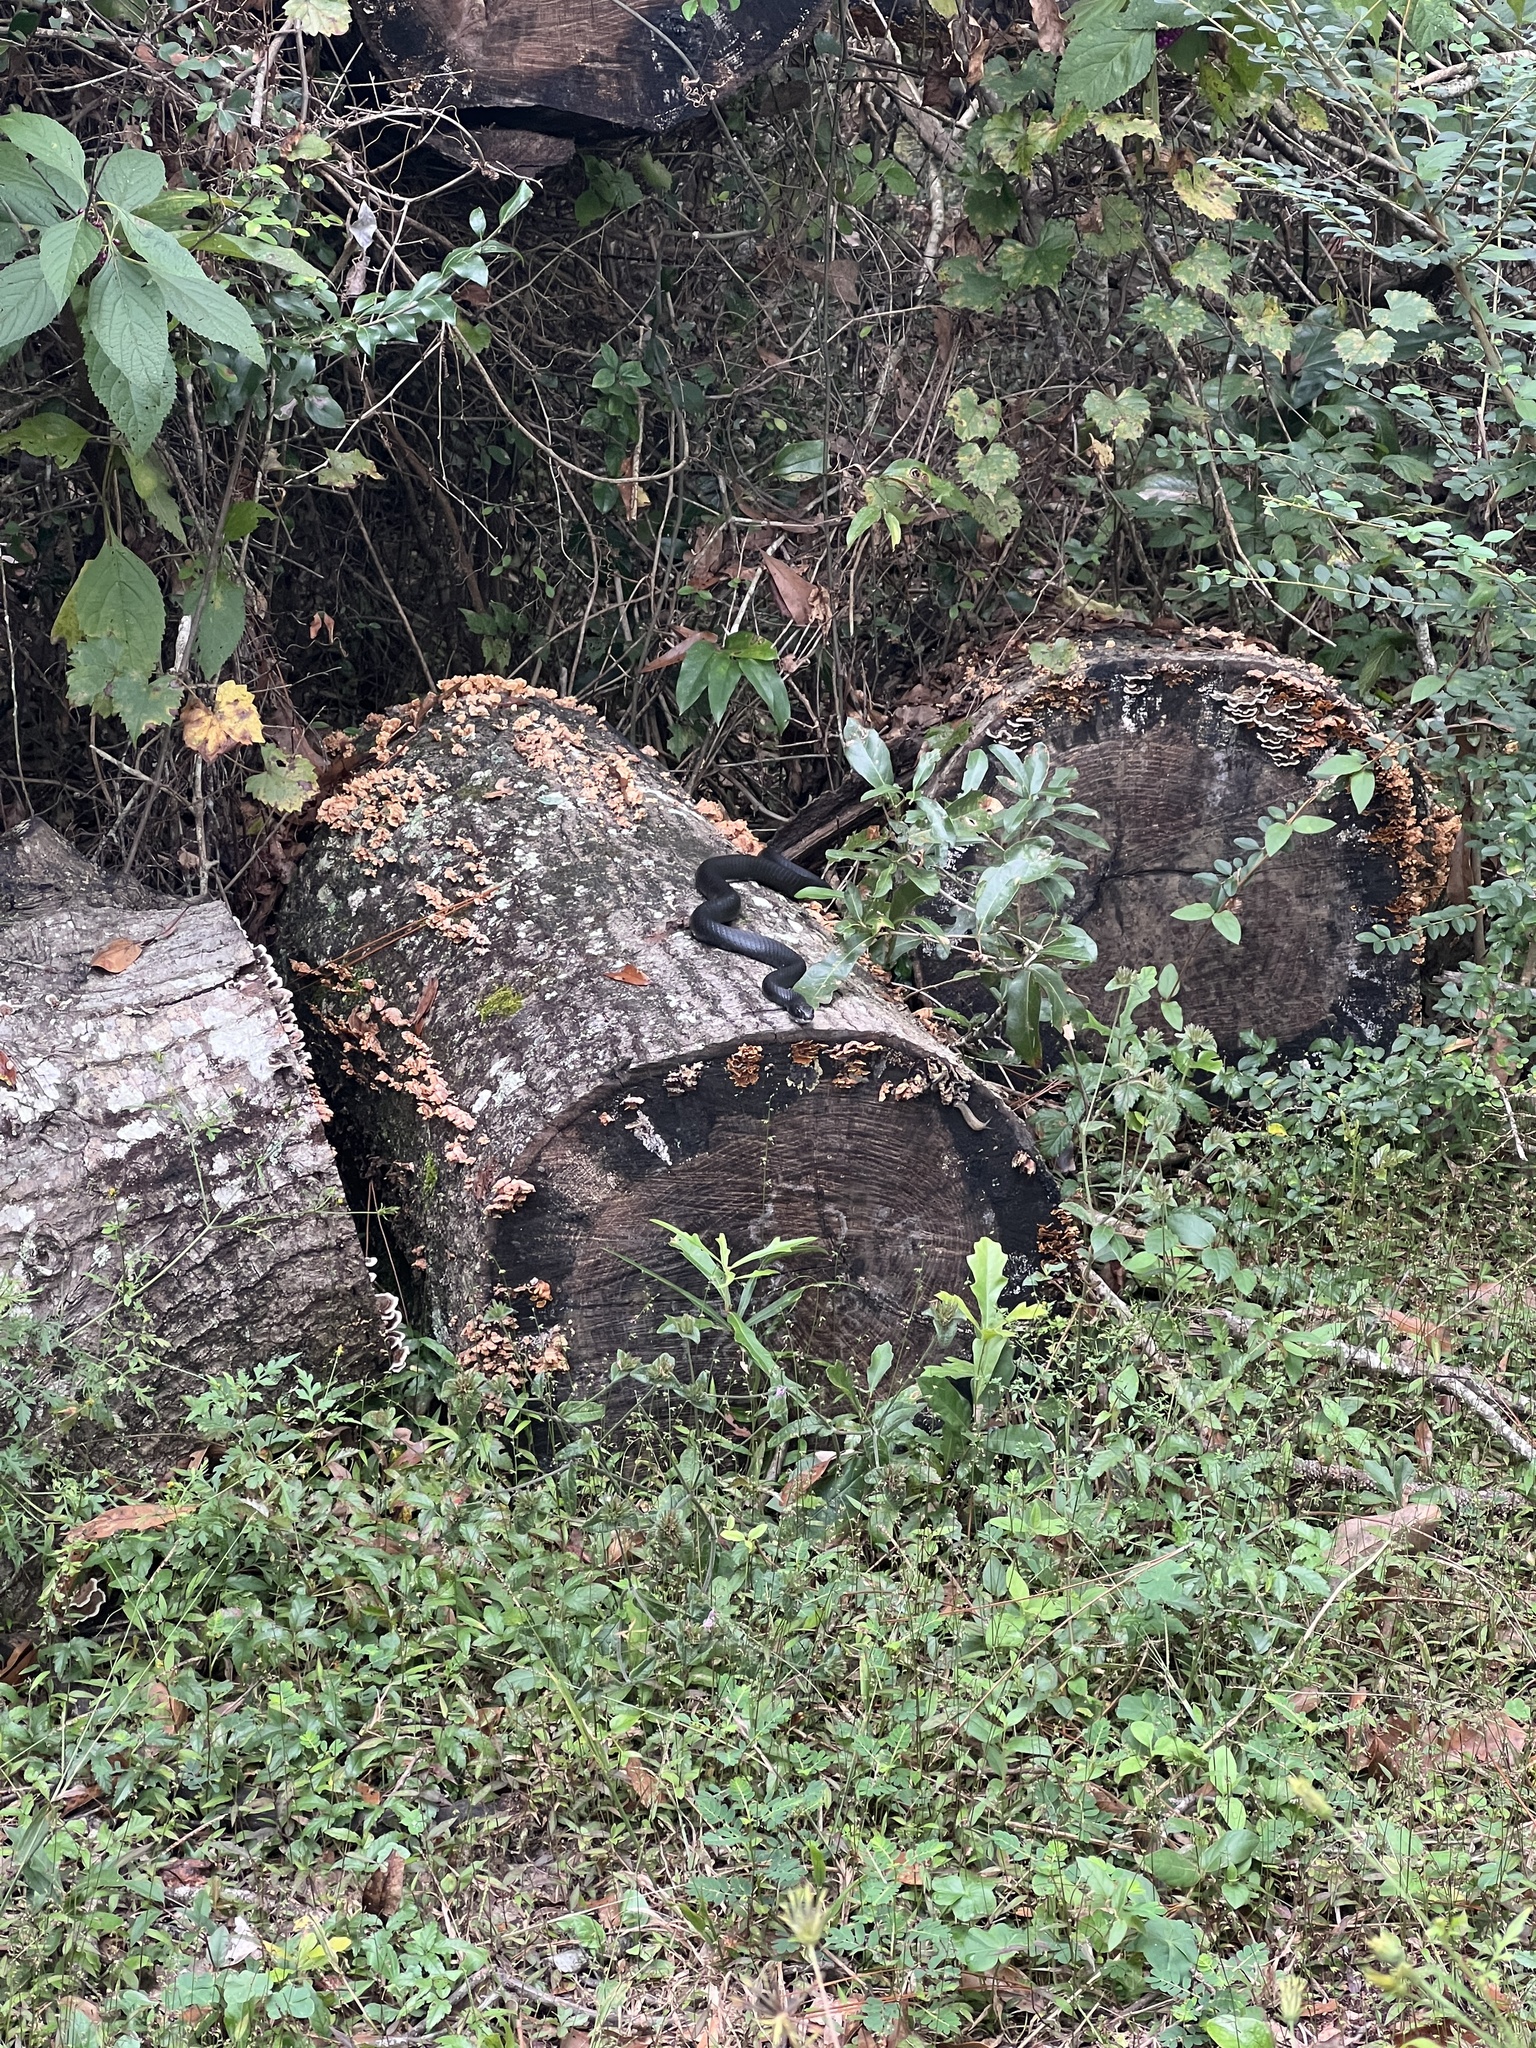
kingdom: Animalia
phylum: Chordata
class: Squamata
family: Colubridae
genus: Coluber
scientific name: Coluber constrictor
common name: Eastern racer
